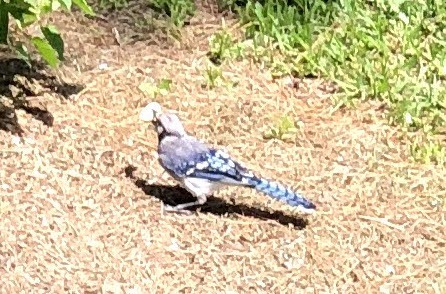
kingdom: Animalia
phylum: Chordata
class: Aves
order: Passeriformes
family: Corvidae
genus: Cyanocitta
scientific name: Cyanocitta cristata
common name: Blue jay
